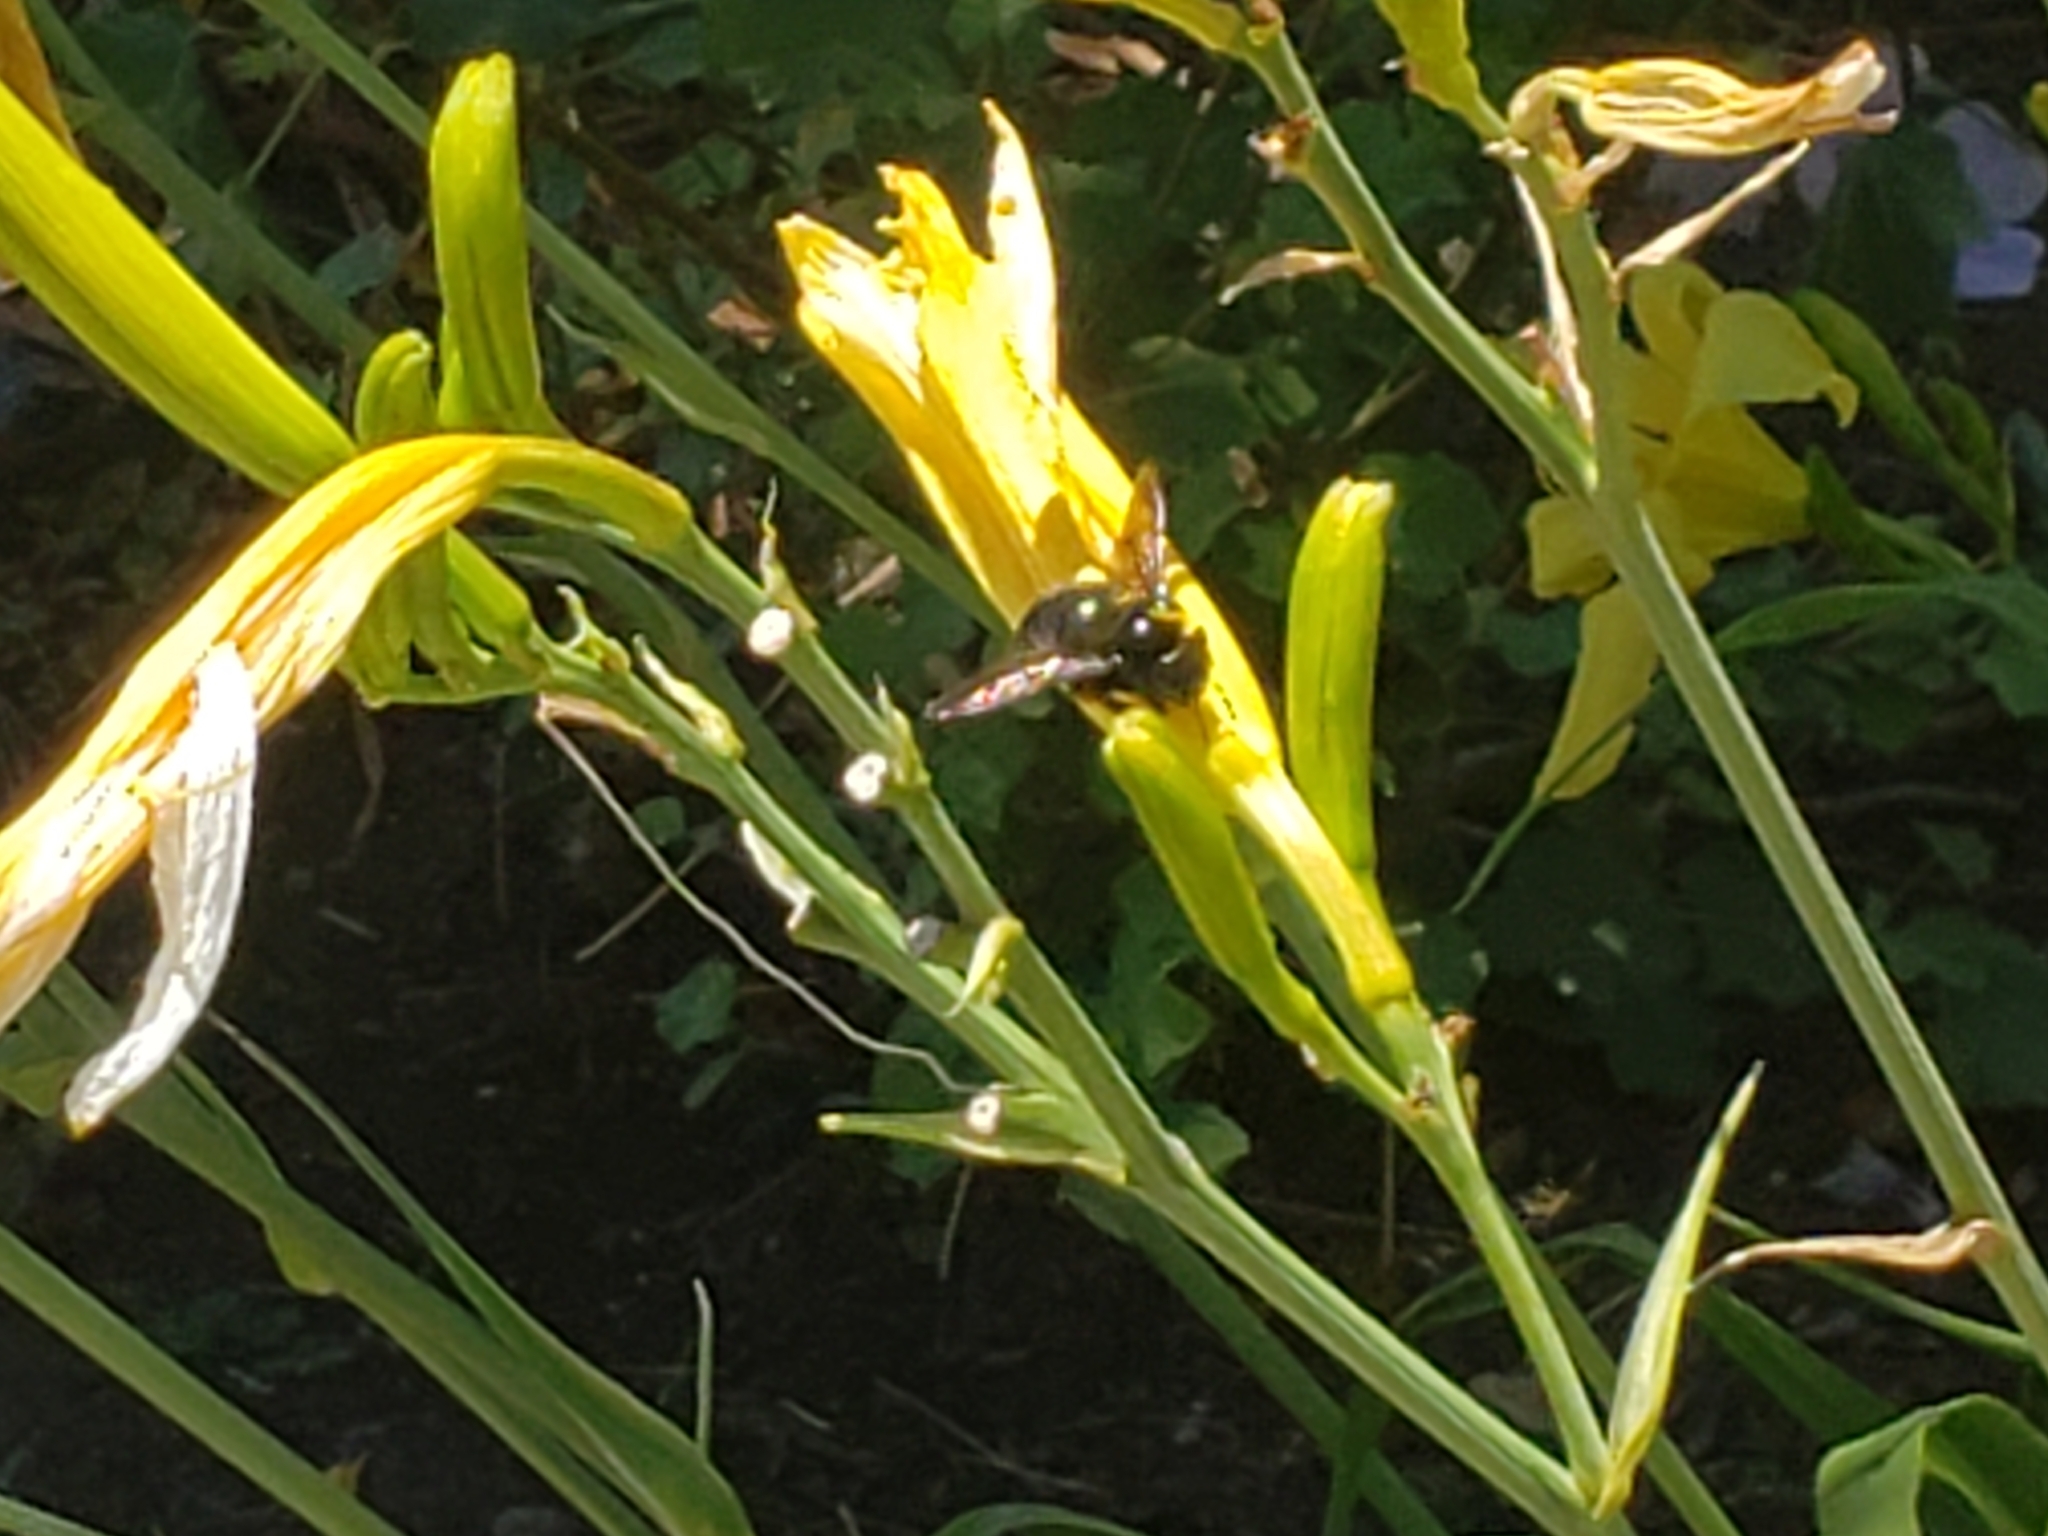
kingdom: Animalia
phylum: Arthropoda
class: Insecta
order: Hymenoptera
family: Apidae
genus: Xylocopa
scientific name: Xylocopa sonorina
